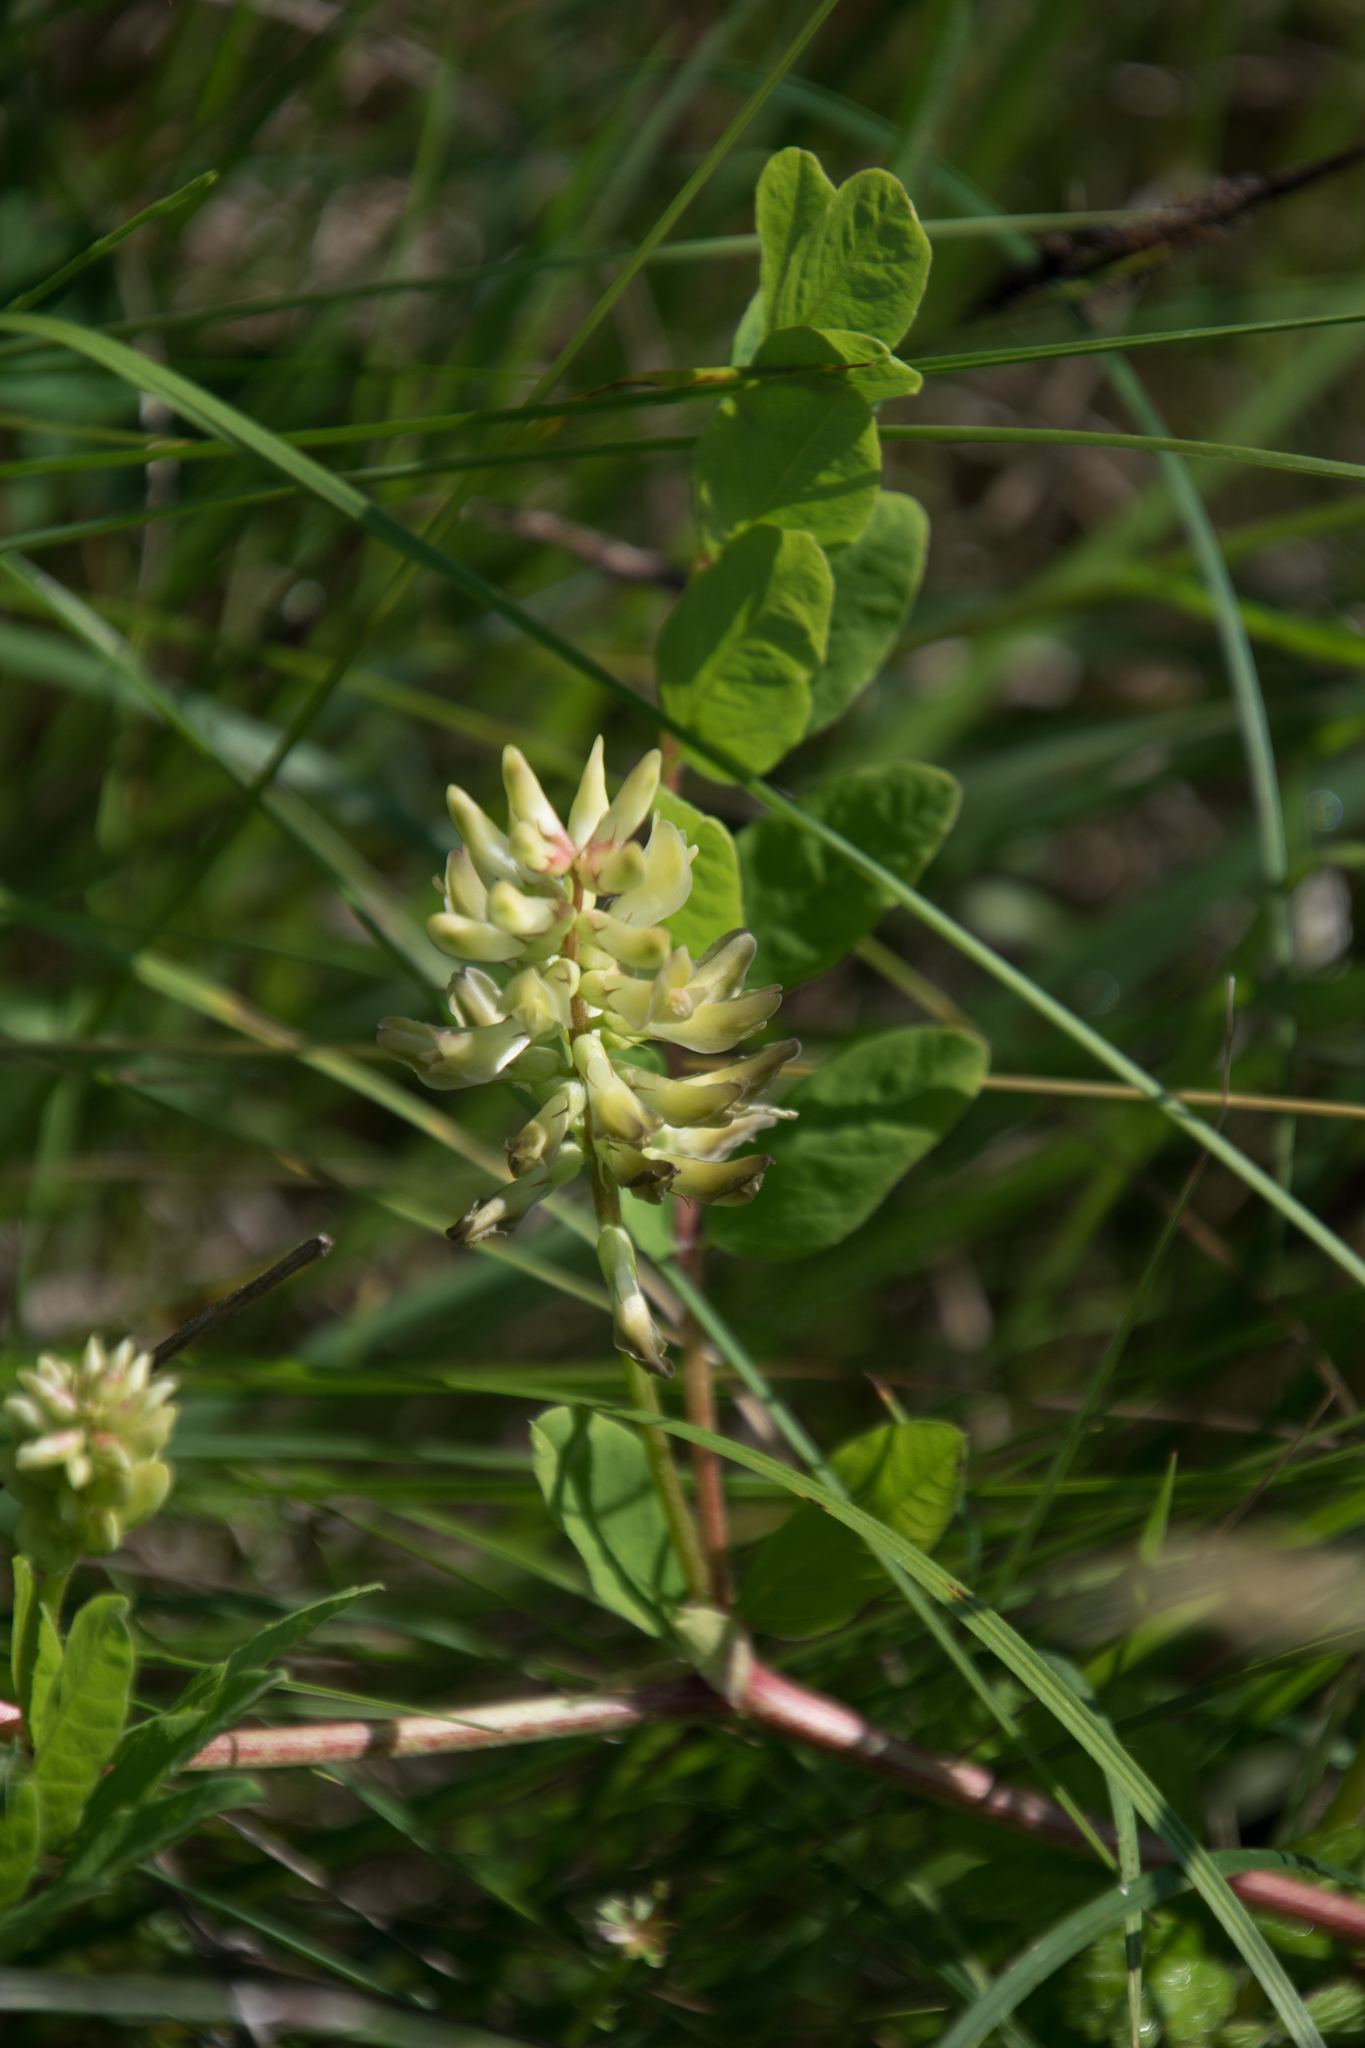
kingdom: Plantae
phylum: Tracheophyta
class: Magnoliopsida
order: Fabales
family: Fabaceae
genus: Astragalus
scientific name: Astragalus glycyphyllos
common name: Wild liquorice
